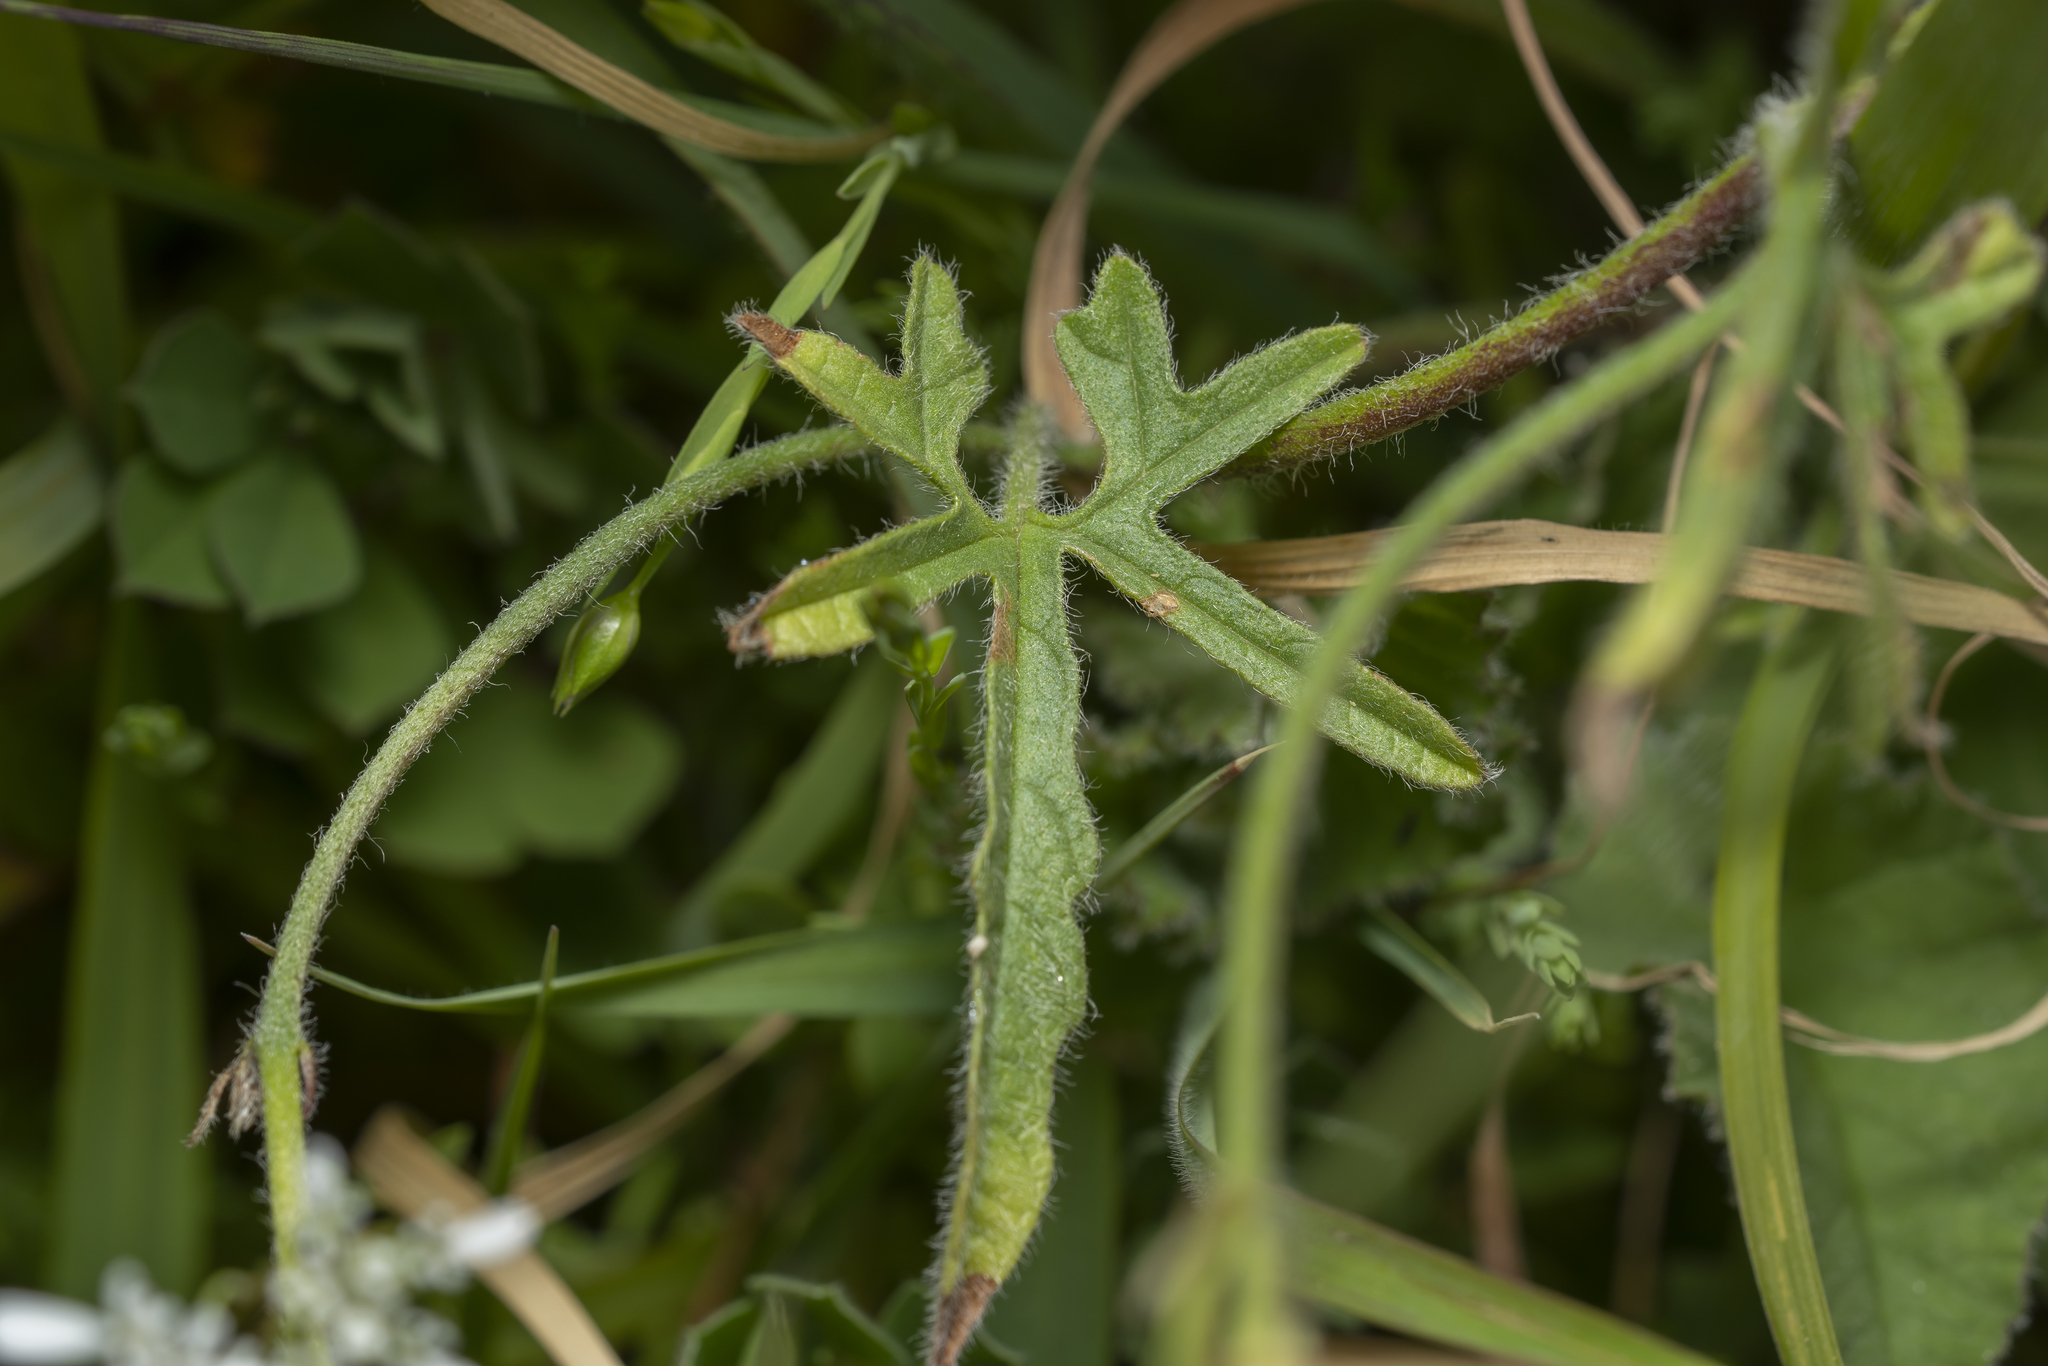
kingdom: Plantae
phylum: Tracheophyta
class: Magnoliopsida
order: Solanales
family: Convolvulaceae
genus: Convolvulus
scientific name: Convolvulus althaeoides
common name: Mallow bindweed
